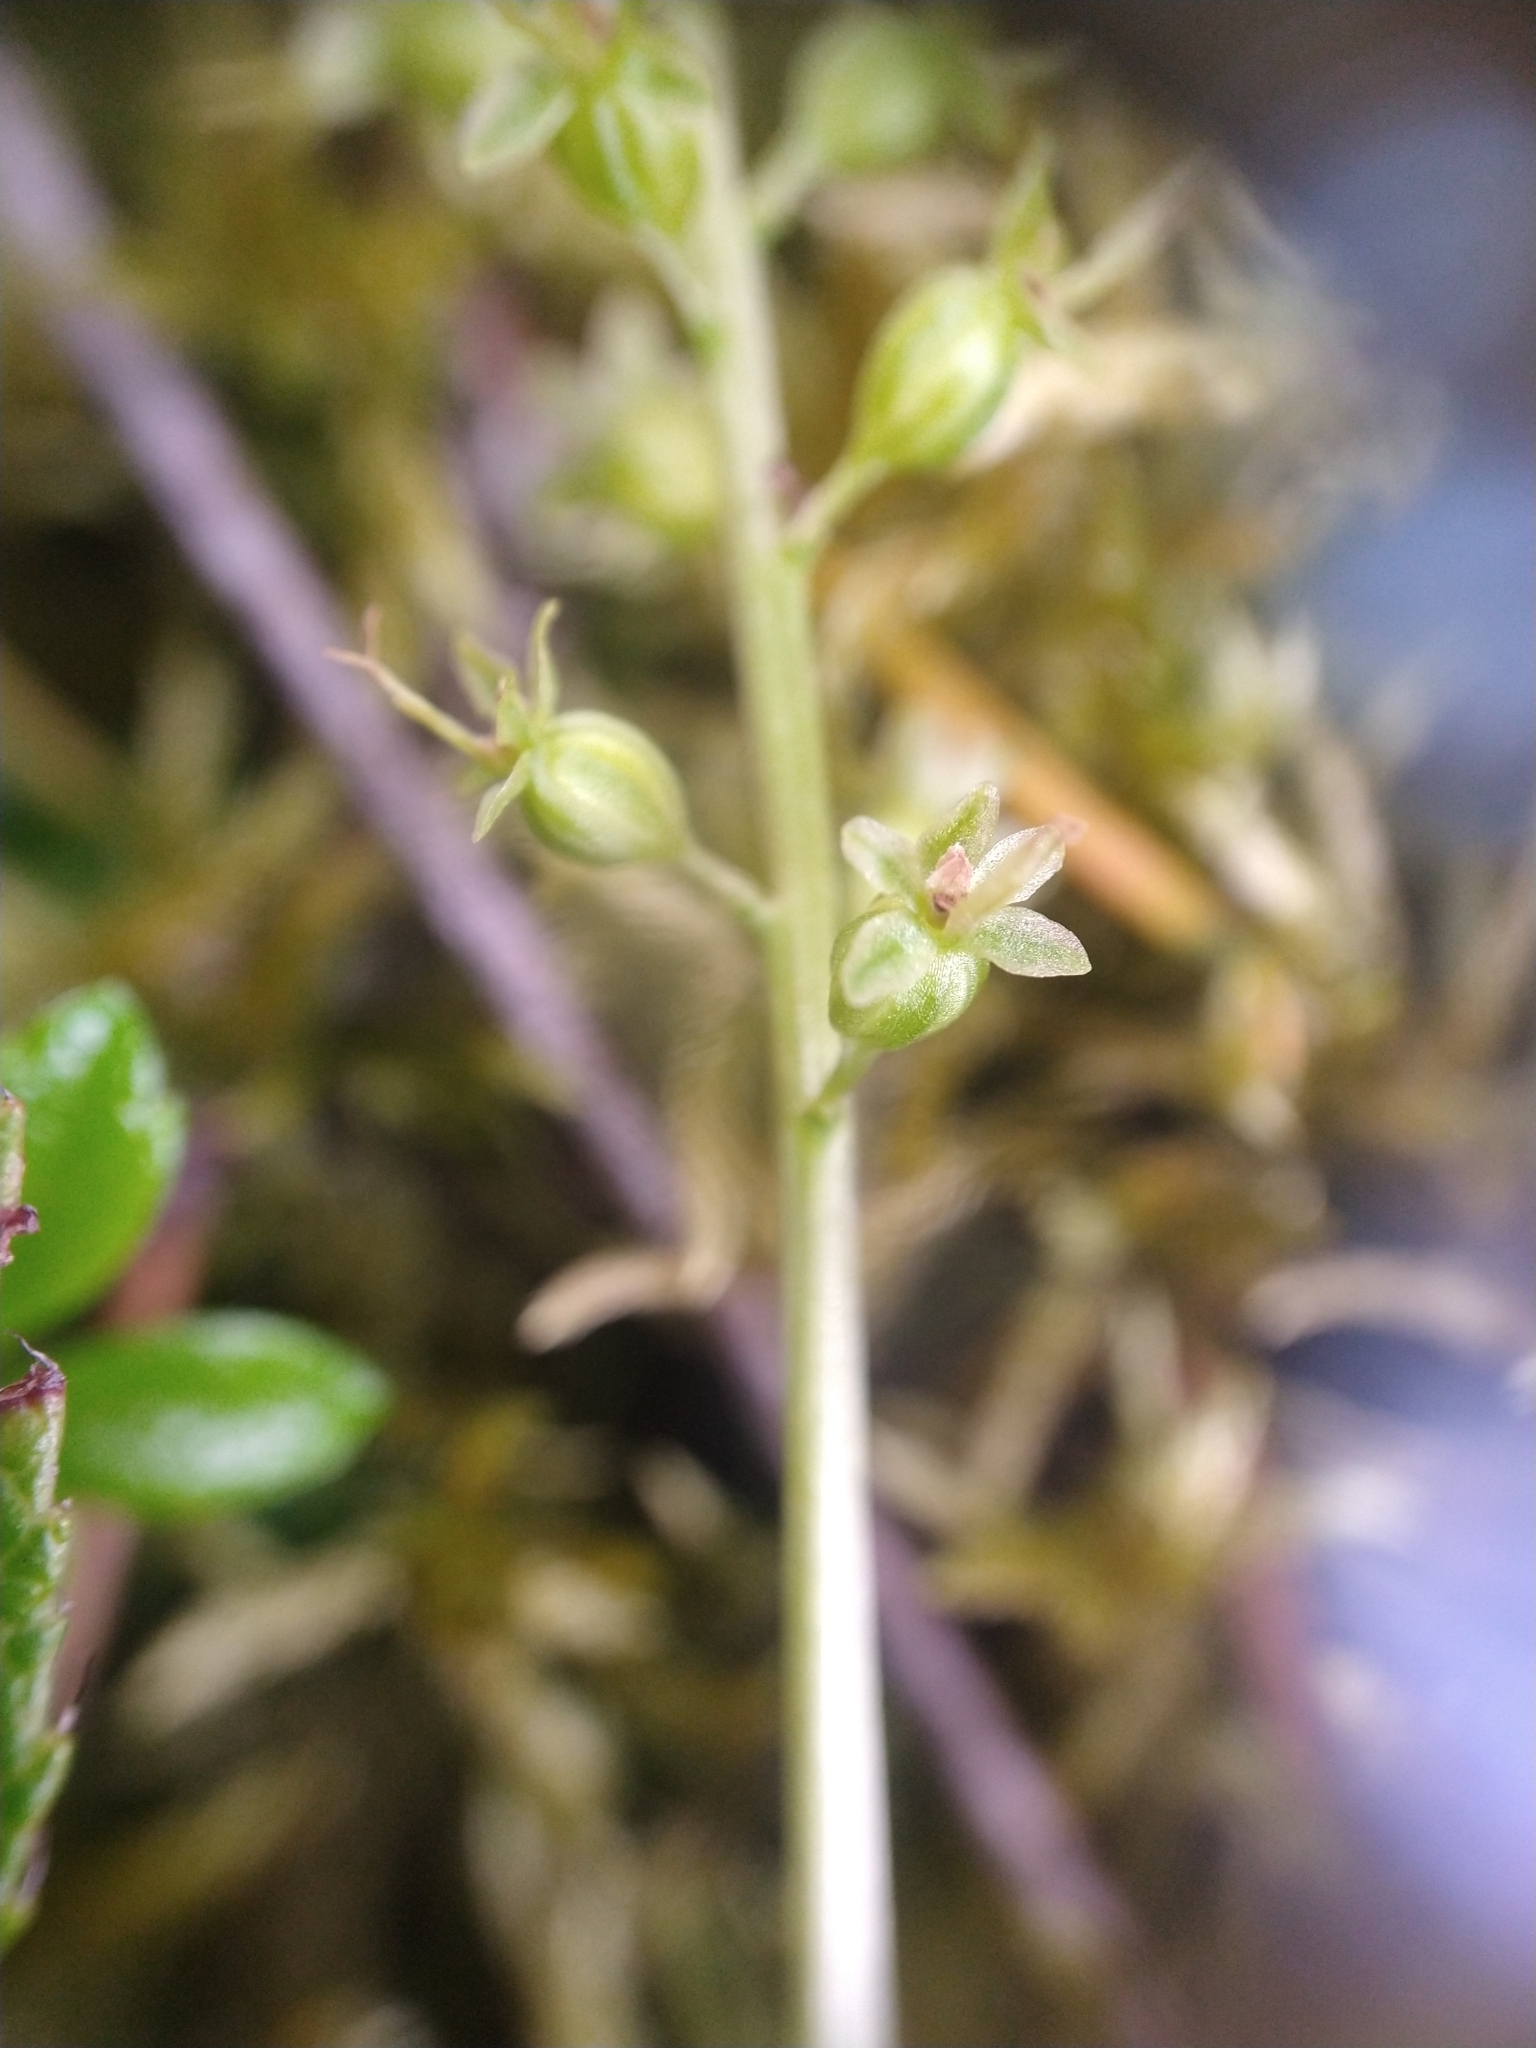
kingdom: Plantae
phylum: Tracheophyta
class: Liliopsida
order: Asparagales
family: Orchidaceae
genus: Neottia
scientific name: Neottia cordata
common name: Lesser twayblade
